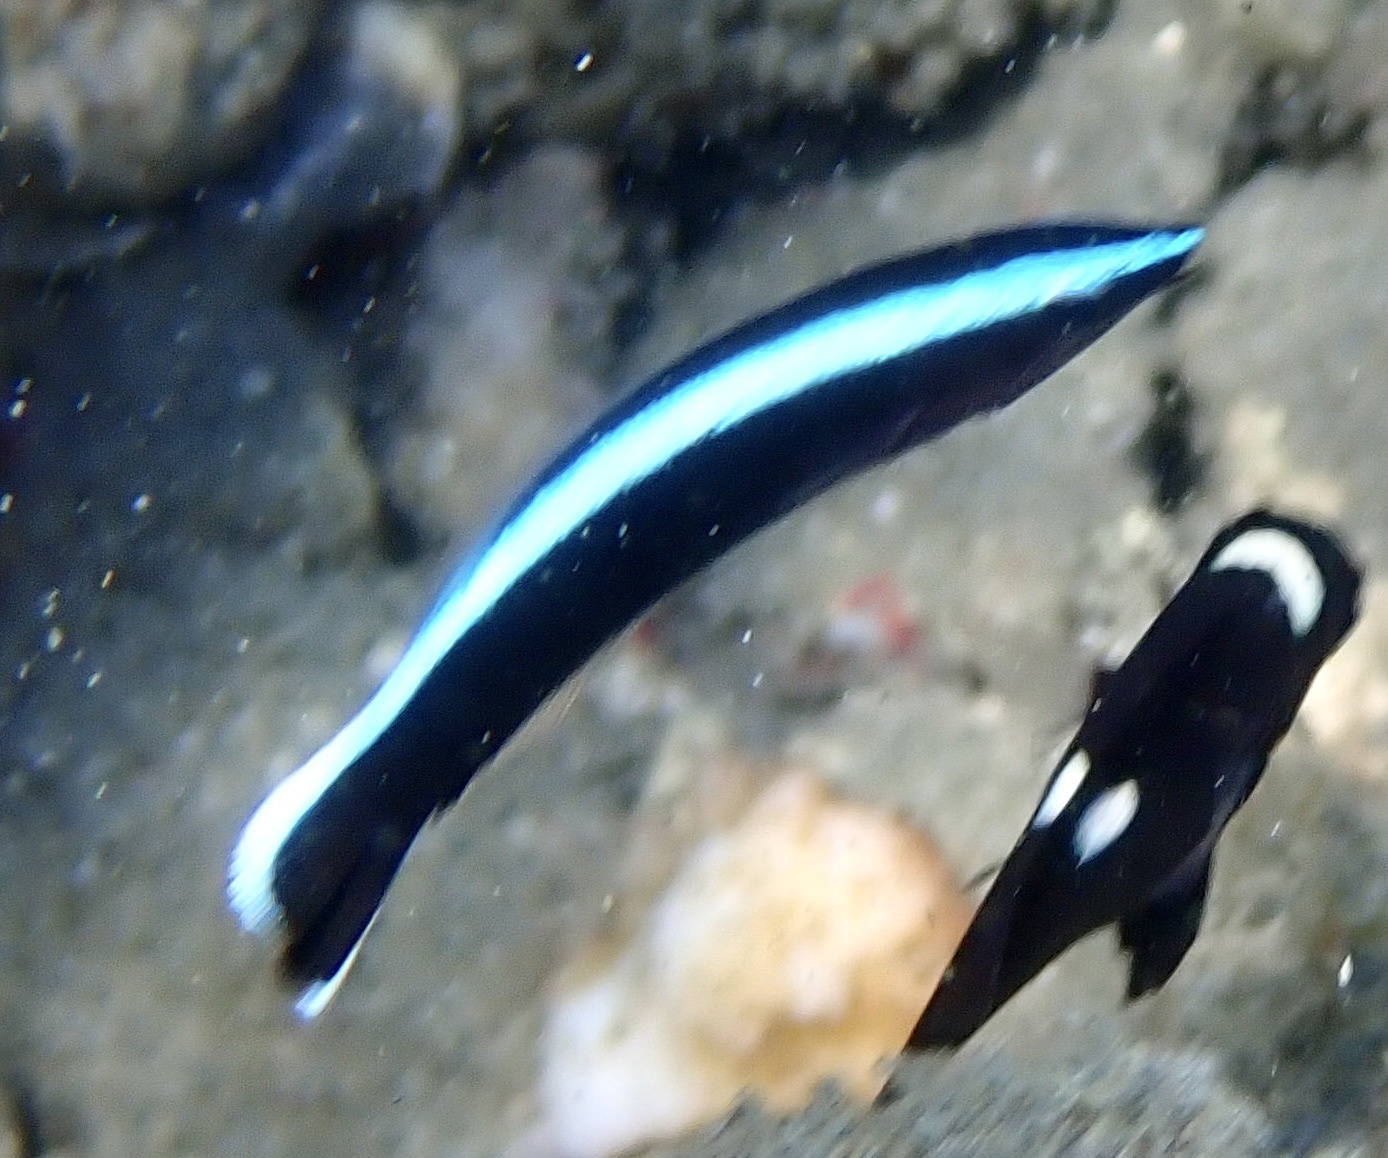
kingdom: Animalia
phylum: Chordata
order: Perciformes
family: Labridae
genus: Labroides
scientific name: Labroides dimidiatus
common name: Blue diesel wrasse
